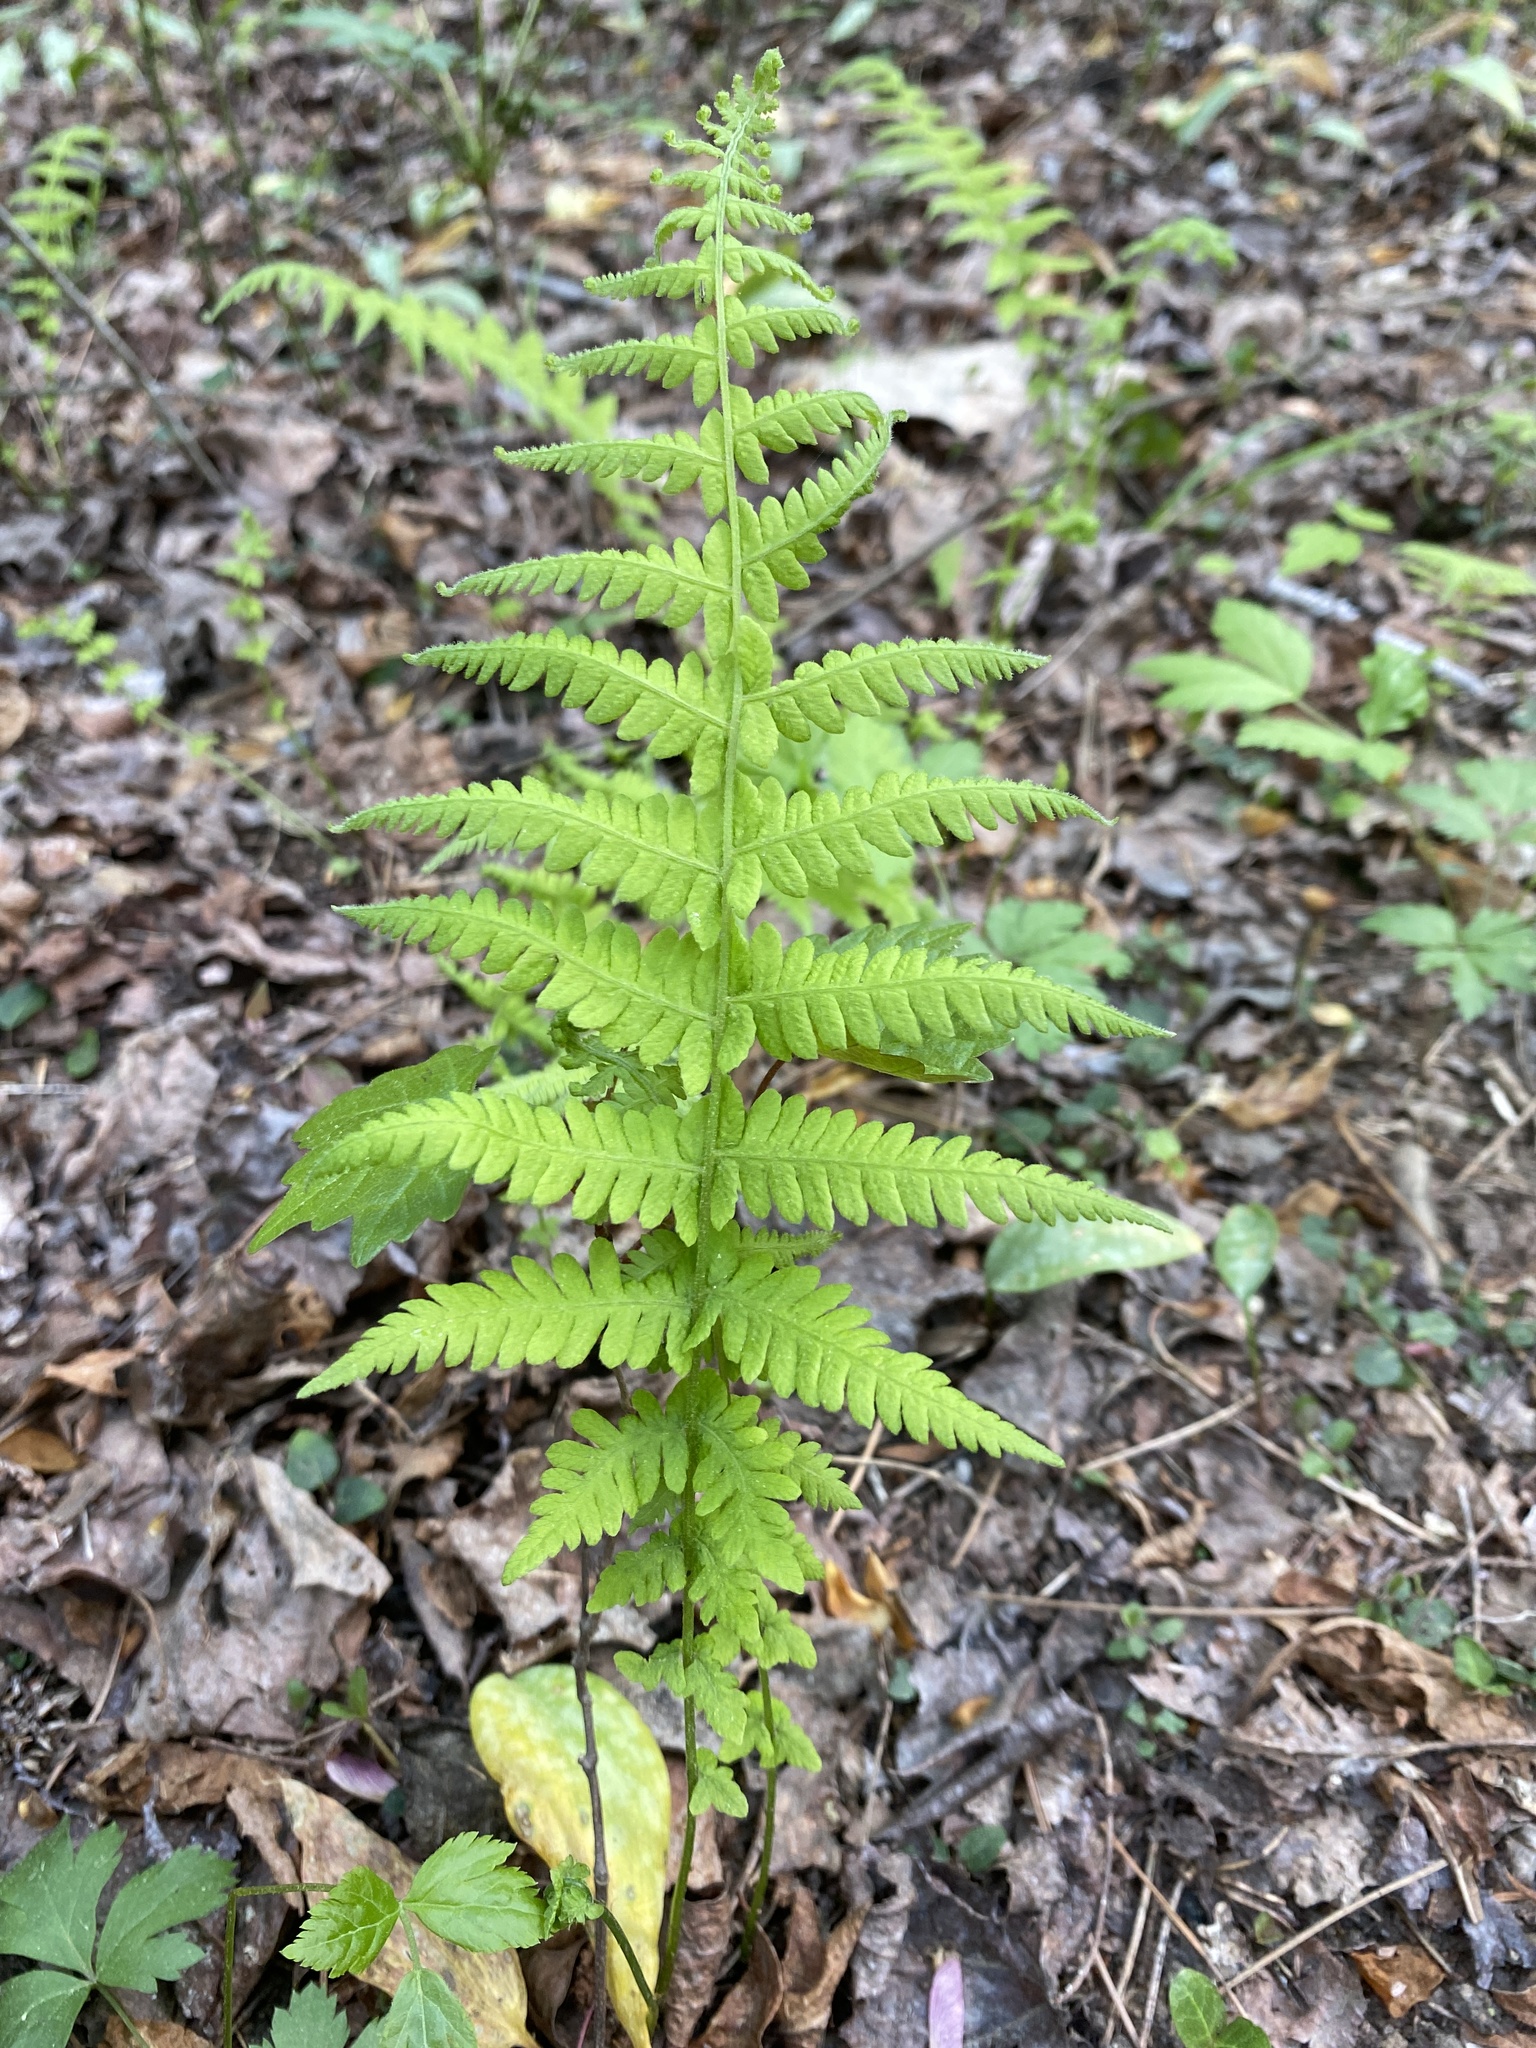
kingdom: Plantae
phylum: Tracheophyta
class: Polypodiopsida
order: Polypodiales
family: Thelypteridaceae
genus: Amauropelta
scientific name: Amauropelta noveboracensis
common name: New york fern
